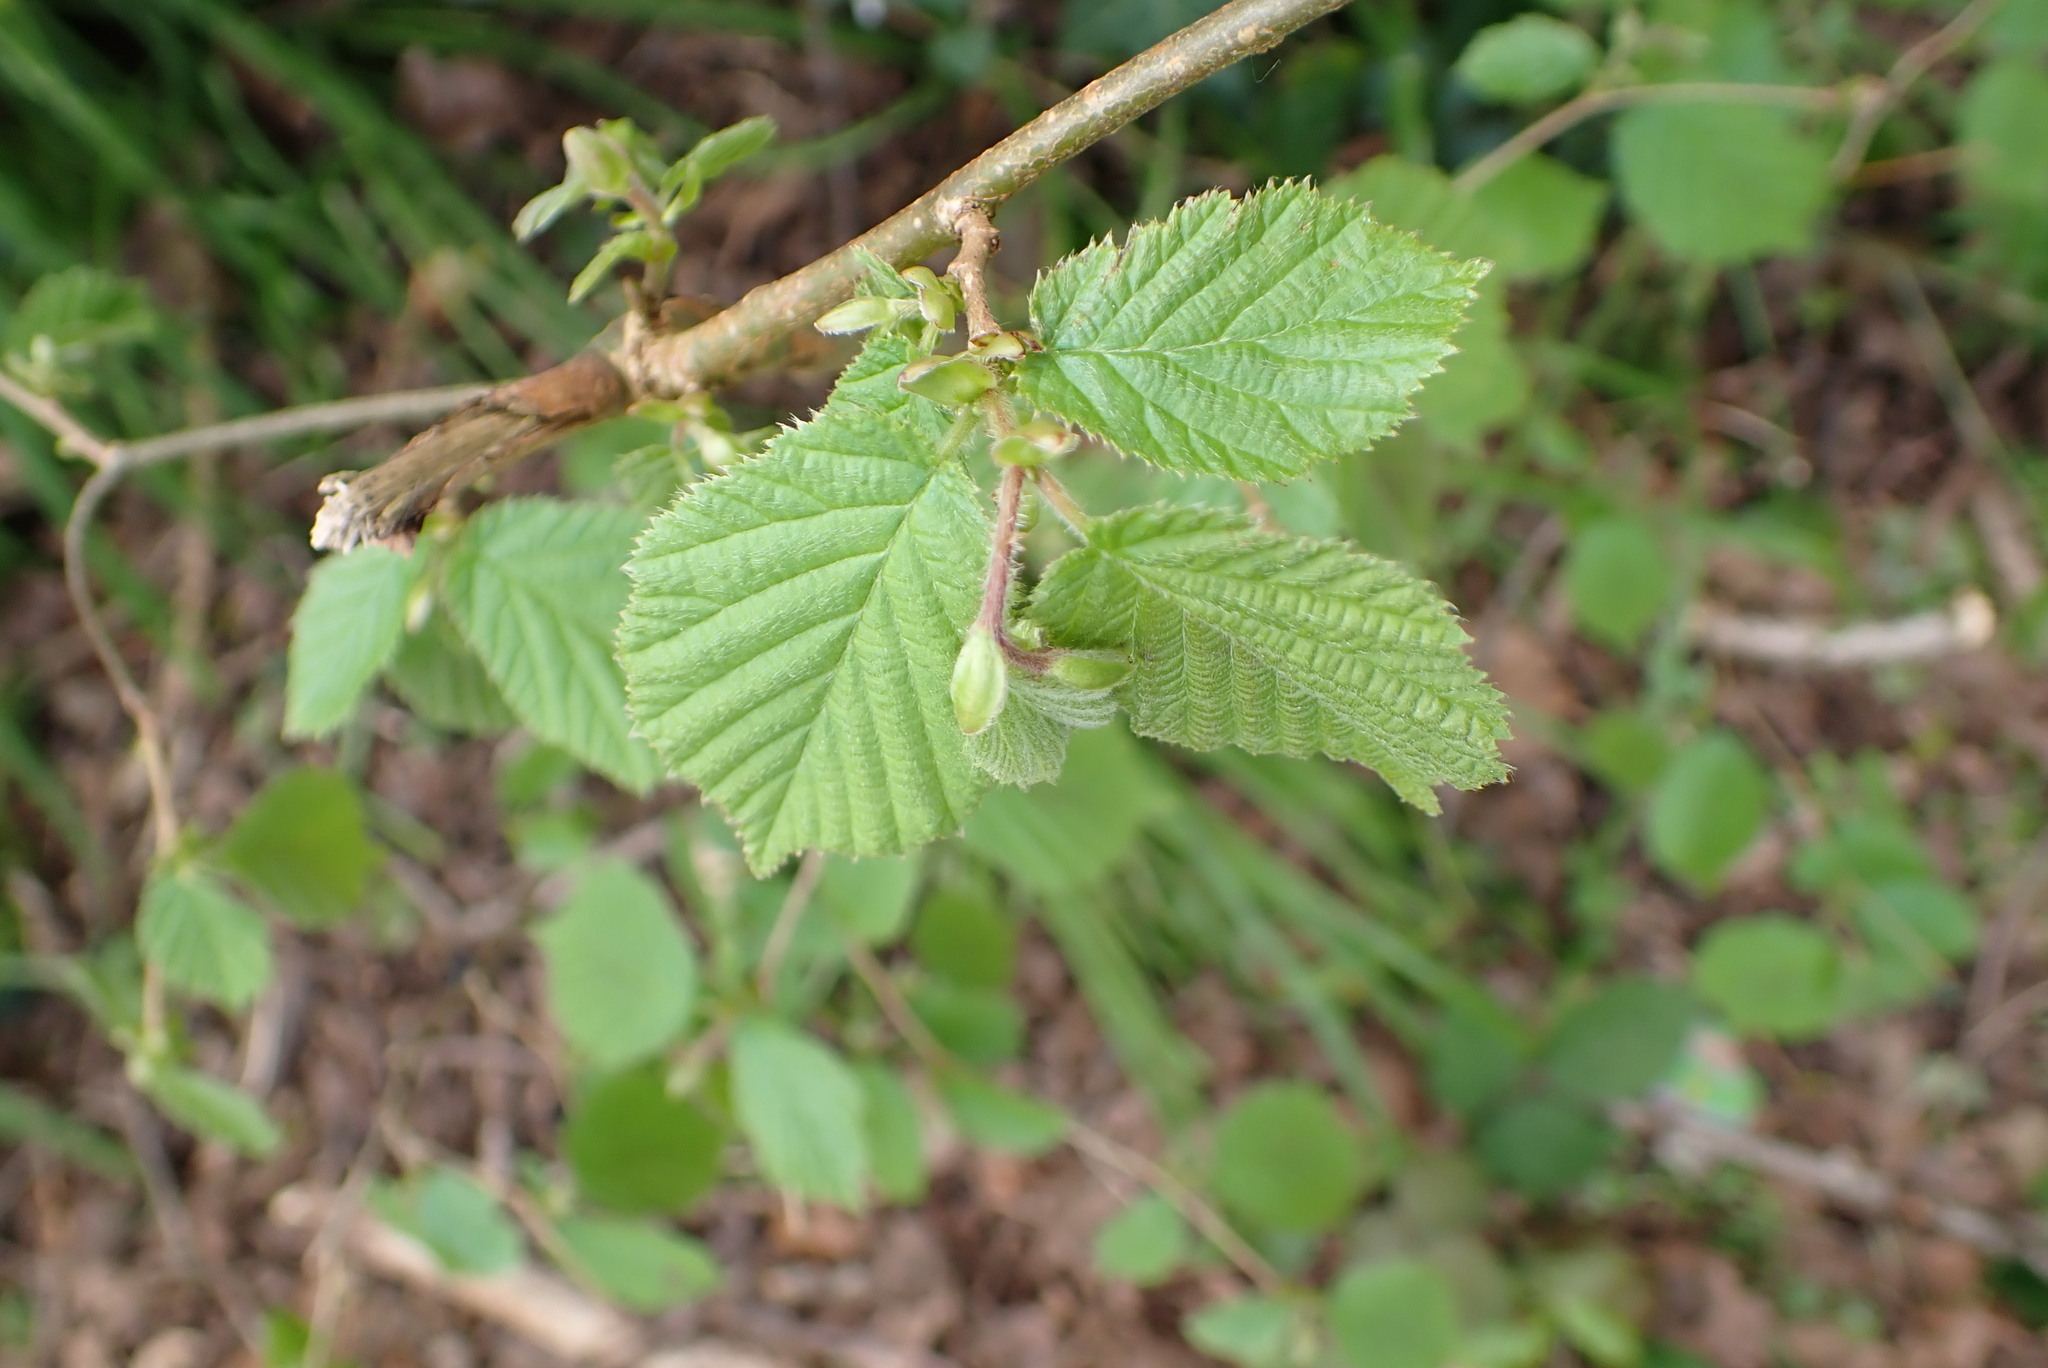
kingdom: Plantae
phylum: Tracheophyta
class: Magnoliopsida
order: Fagales
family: Betulaceae
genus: Corylus
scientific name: Corylus avellana
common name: European hazel
